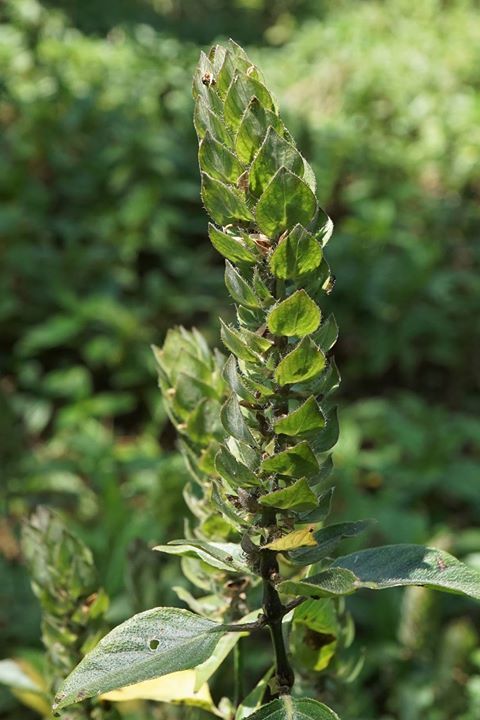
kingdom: Plantae
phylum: Tracheophyta
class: Magnoliopsida
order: Lamiales
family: Acanthaceae
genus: Ruellia
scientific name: Ruellia blechum
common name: Browne's blechum
